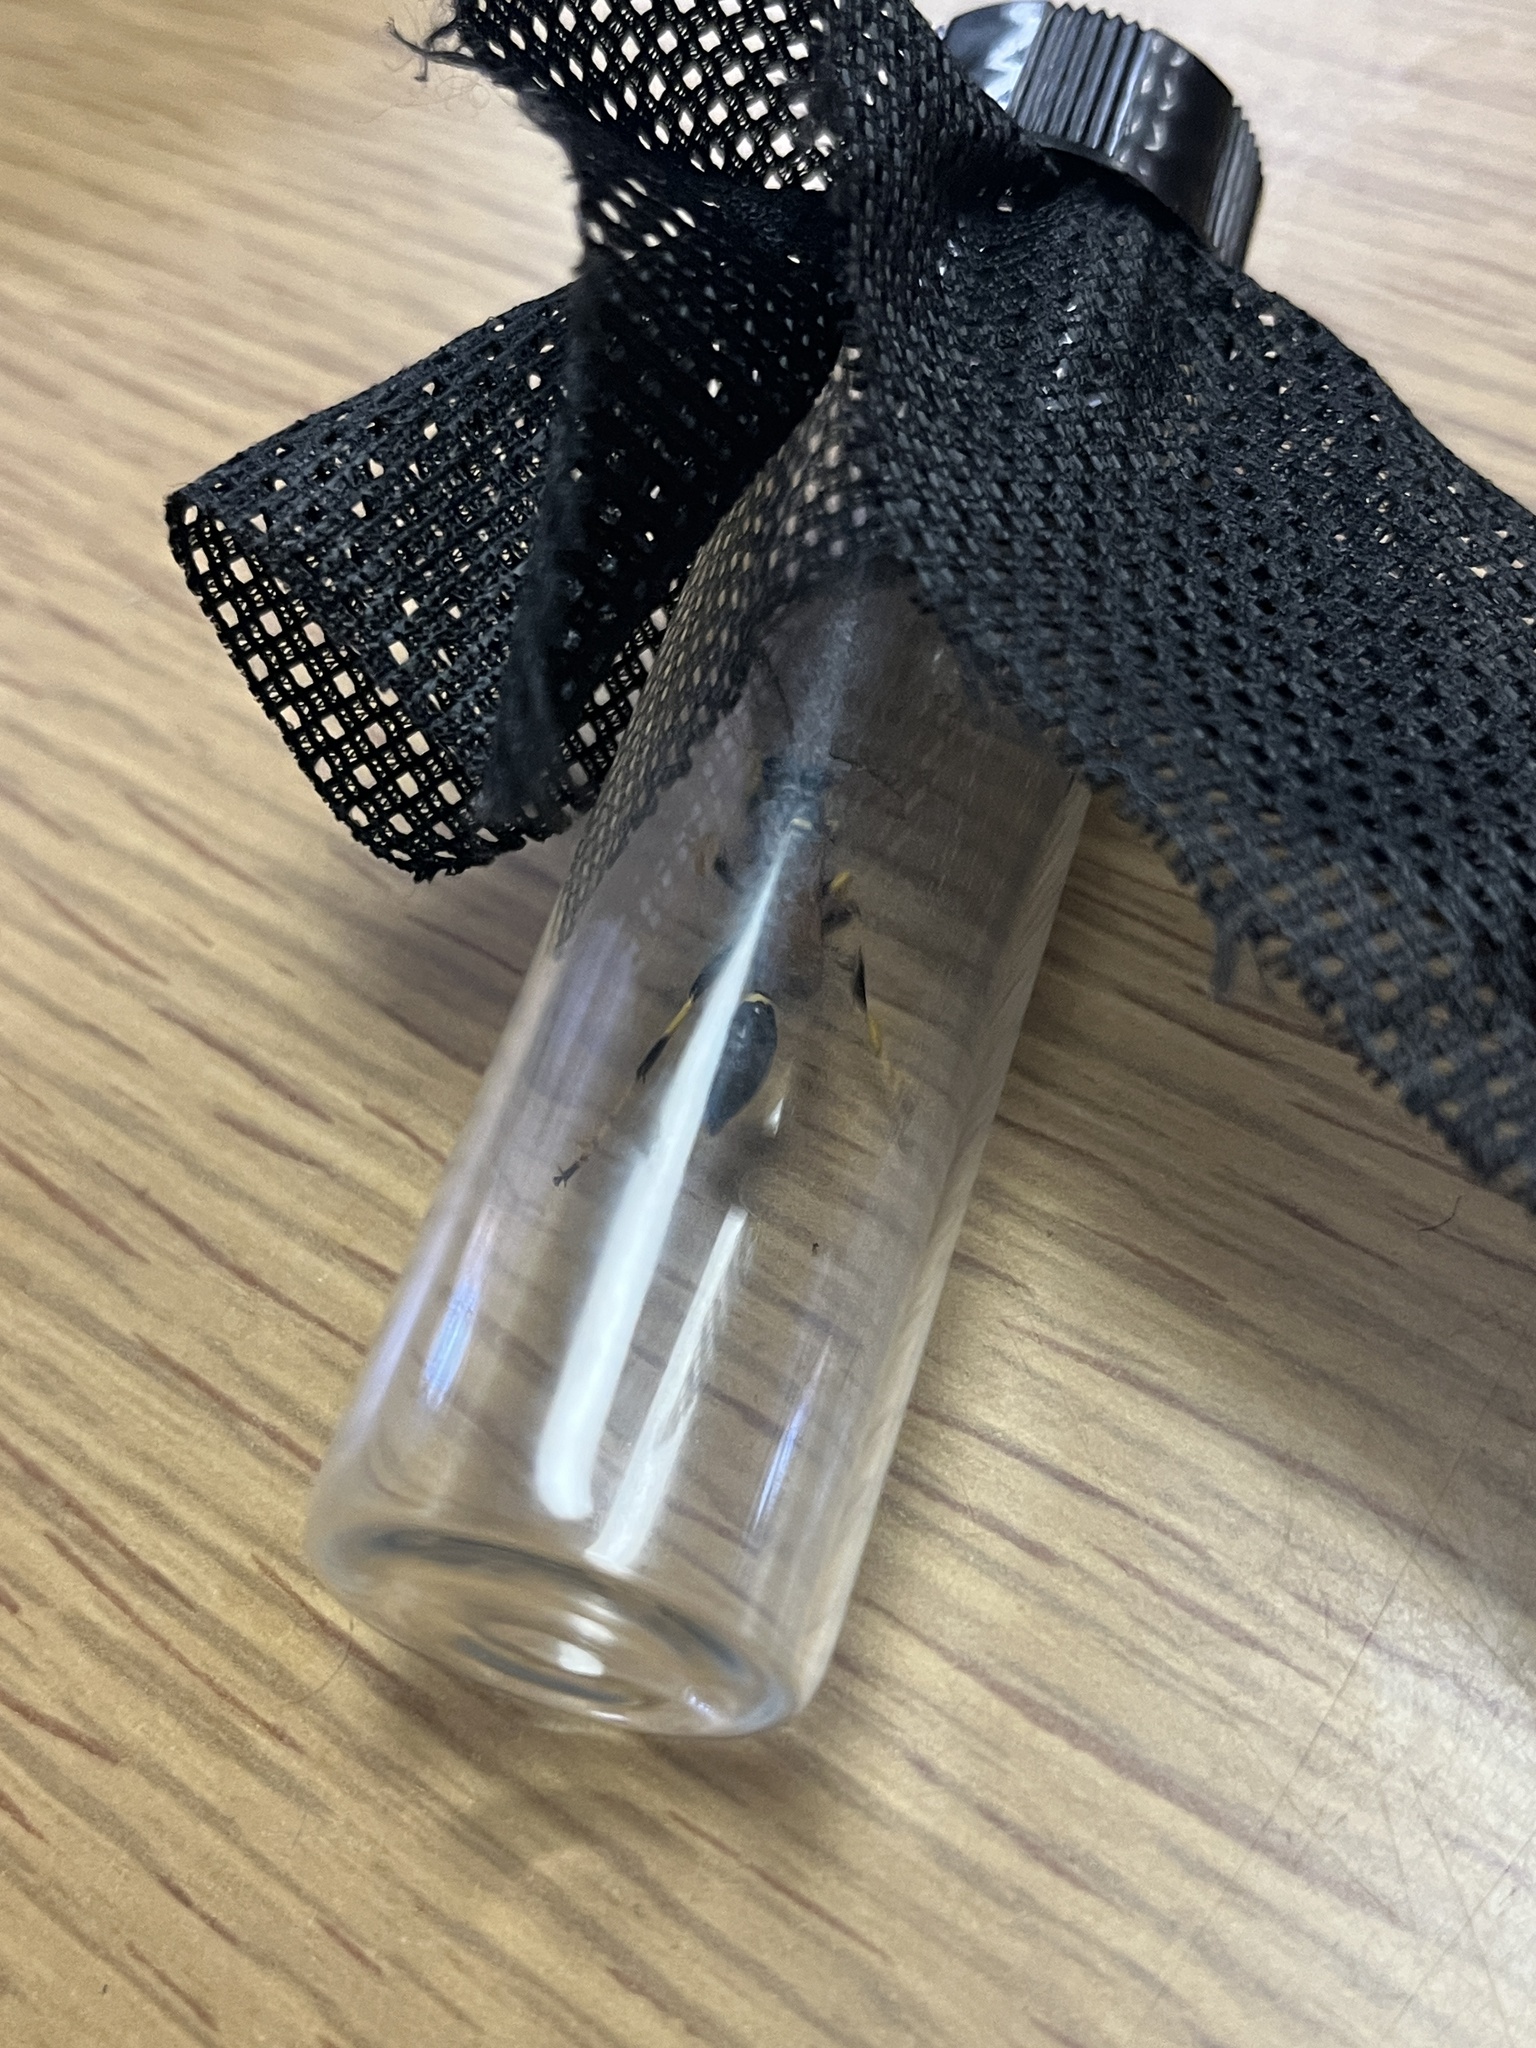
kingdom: Animalia
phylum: Arthropoda
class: Insecta
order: Hymenoptera
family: Sphecidae
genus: Sceliphron
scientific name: Sceliphron caementarium
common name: Mud dauber
